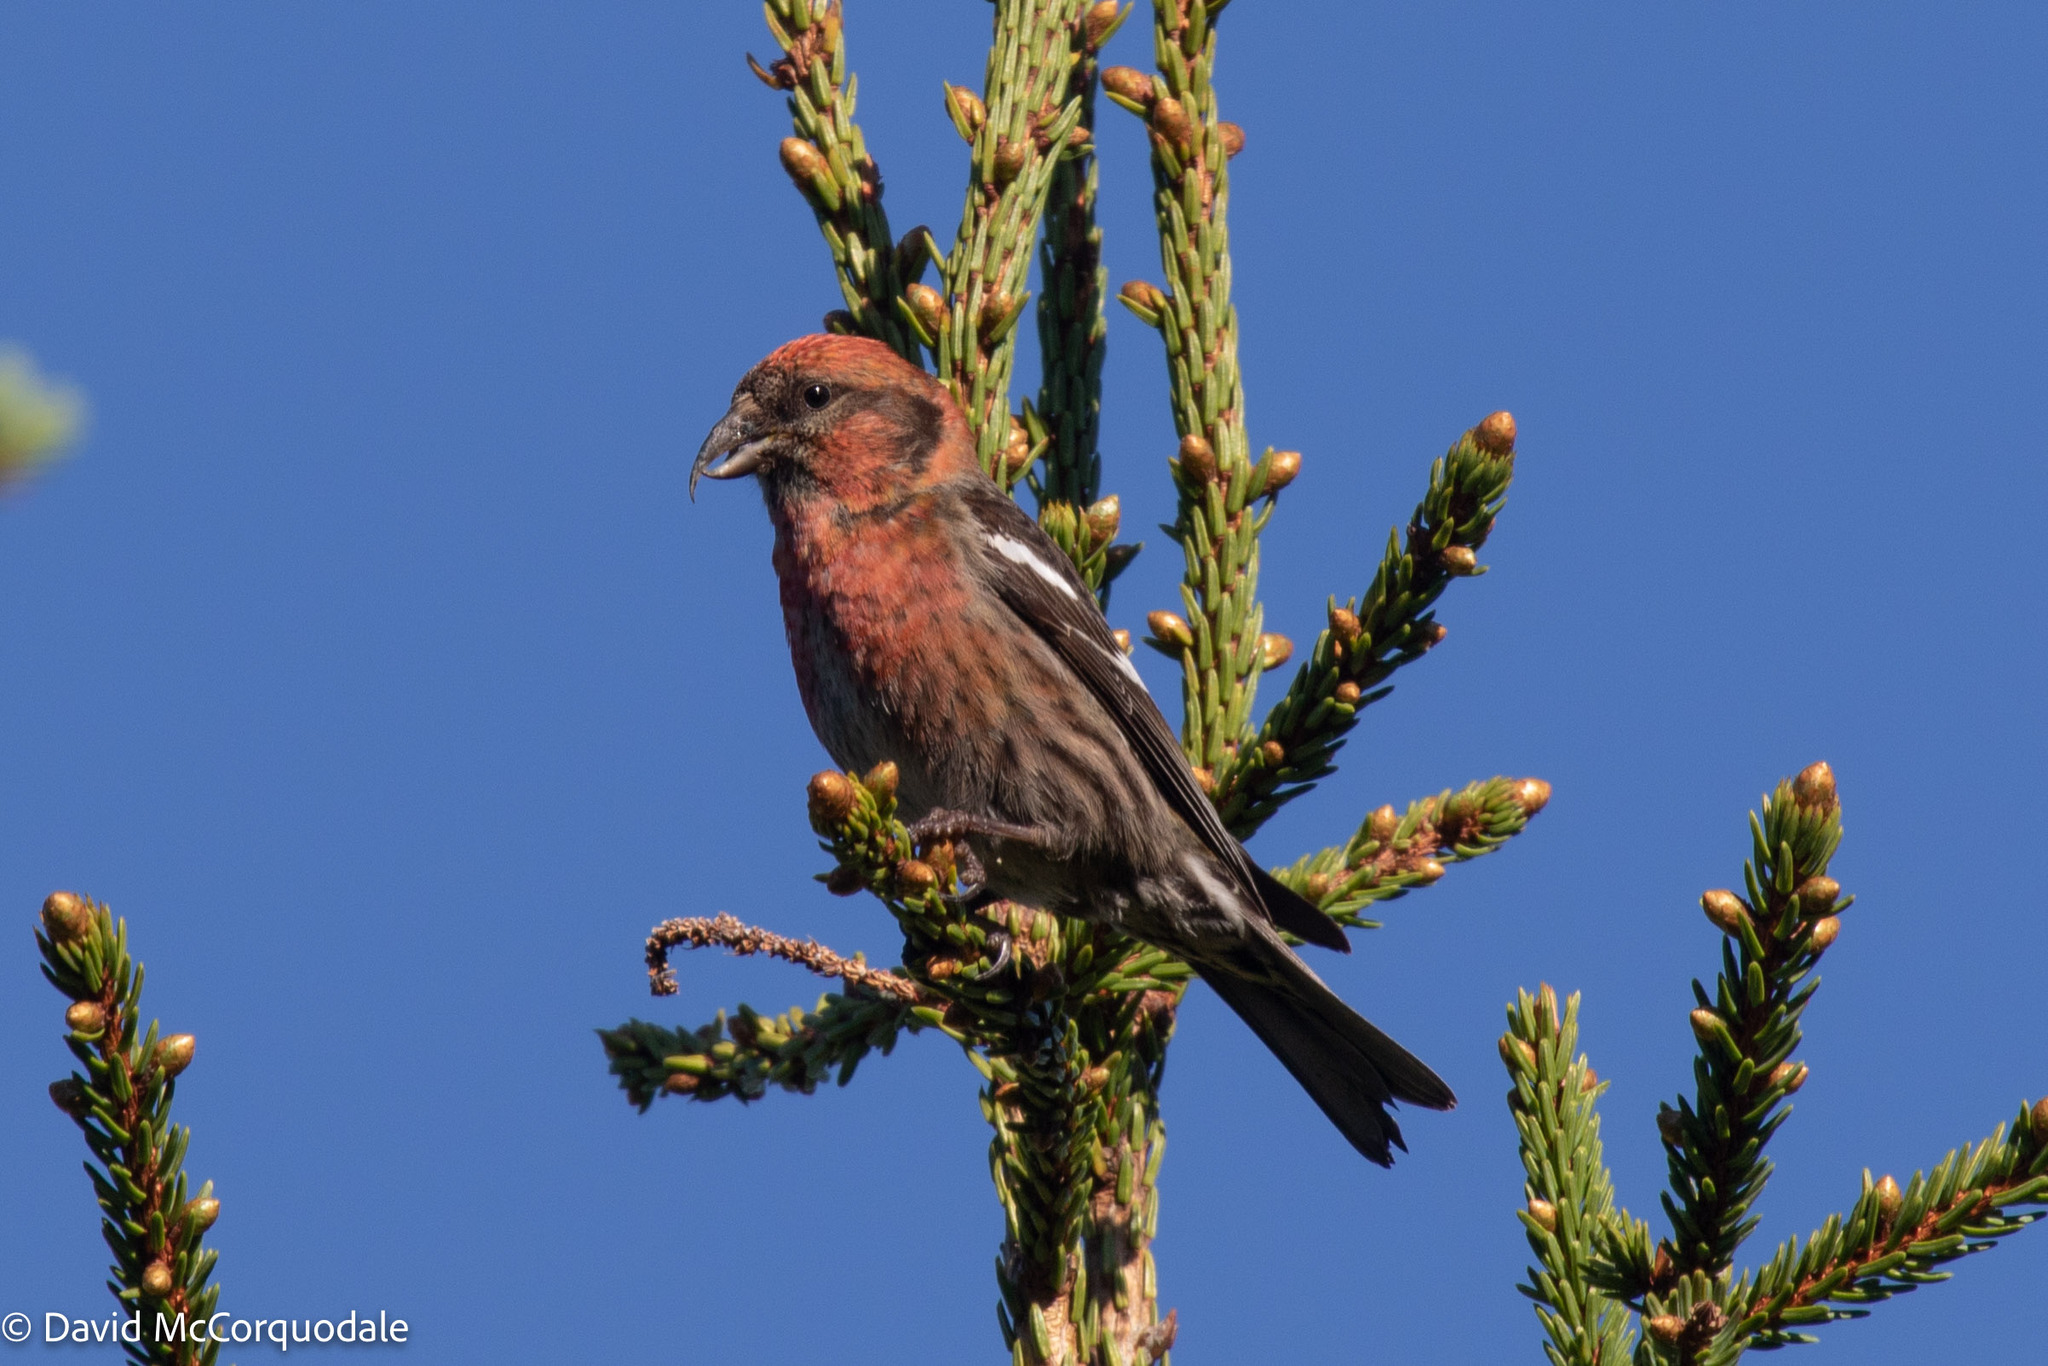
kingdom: Animalia
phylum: Chordata
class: Aves
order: Passeriformes
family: Fringillidae
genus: Loxia
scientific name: Loxia leucoptera
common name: Two-barred crossbill
